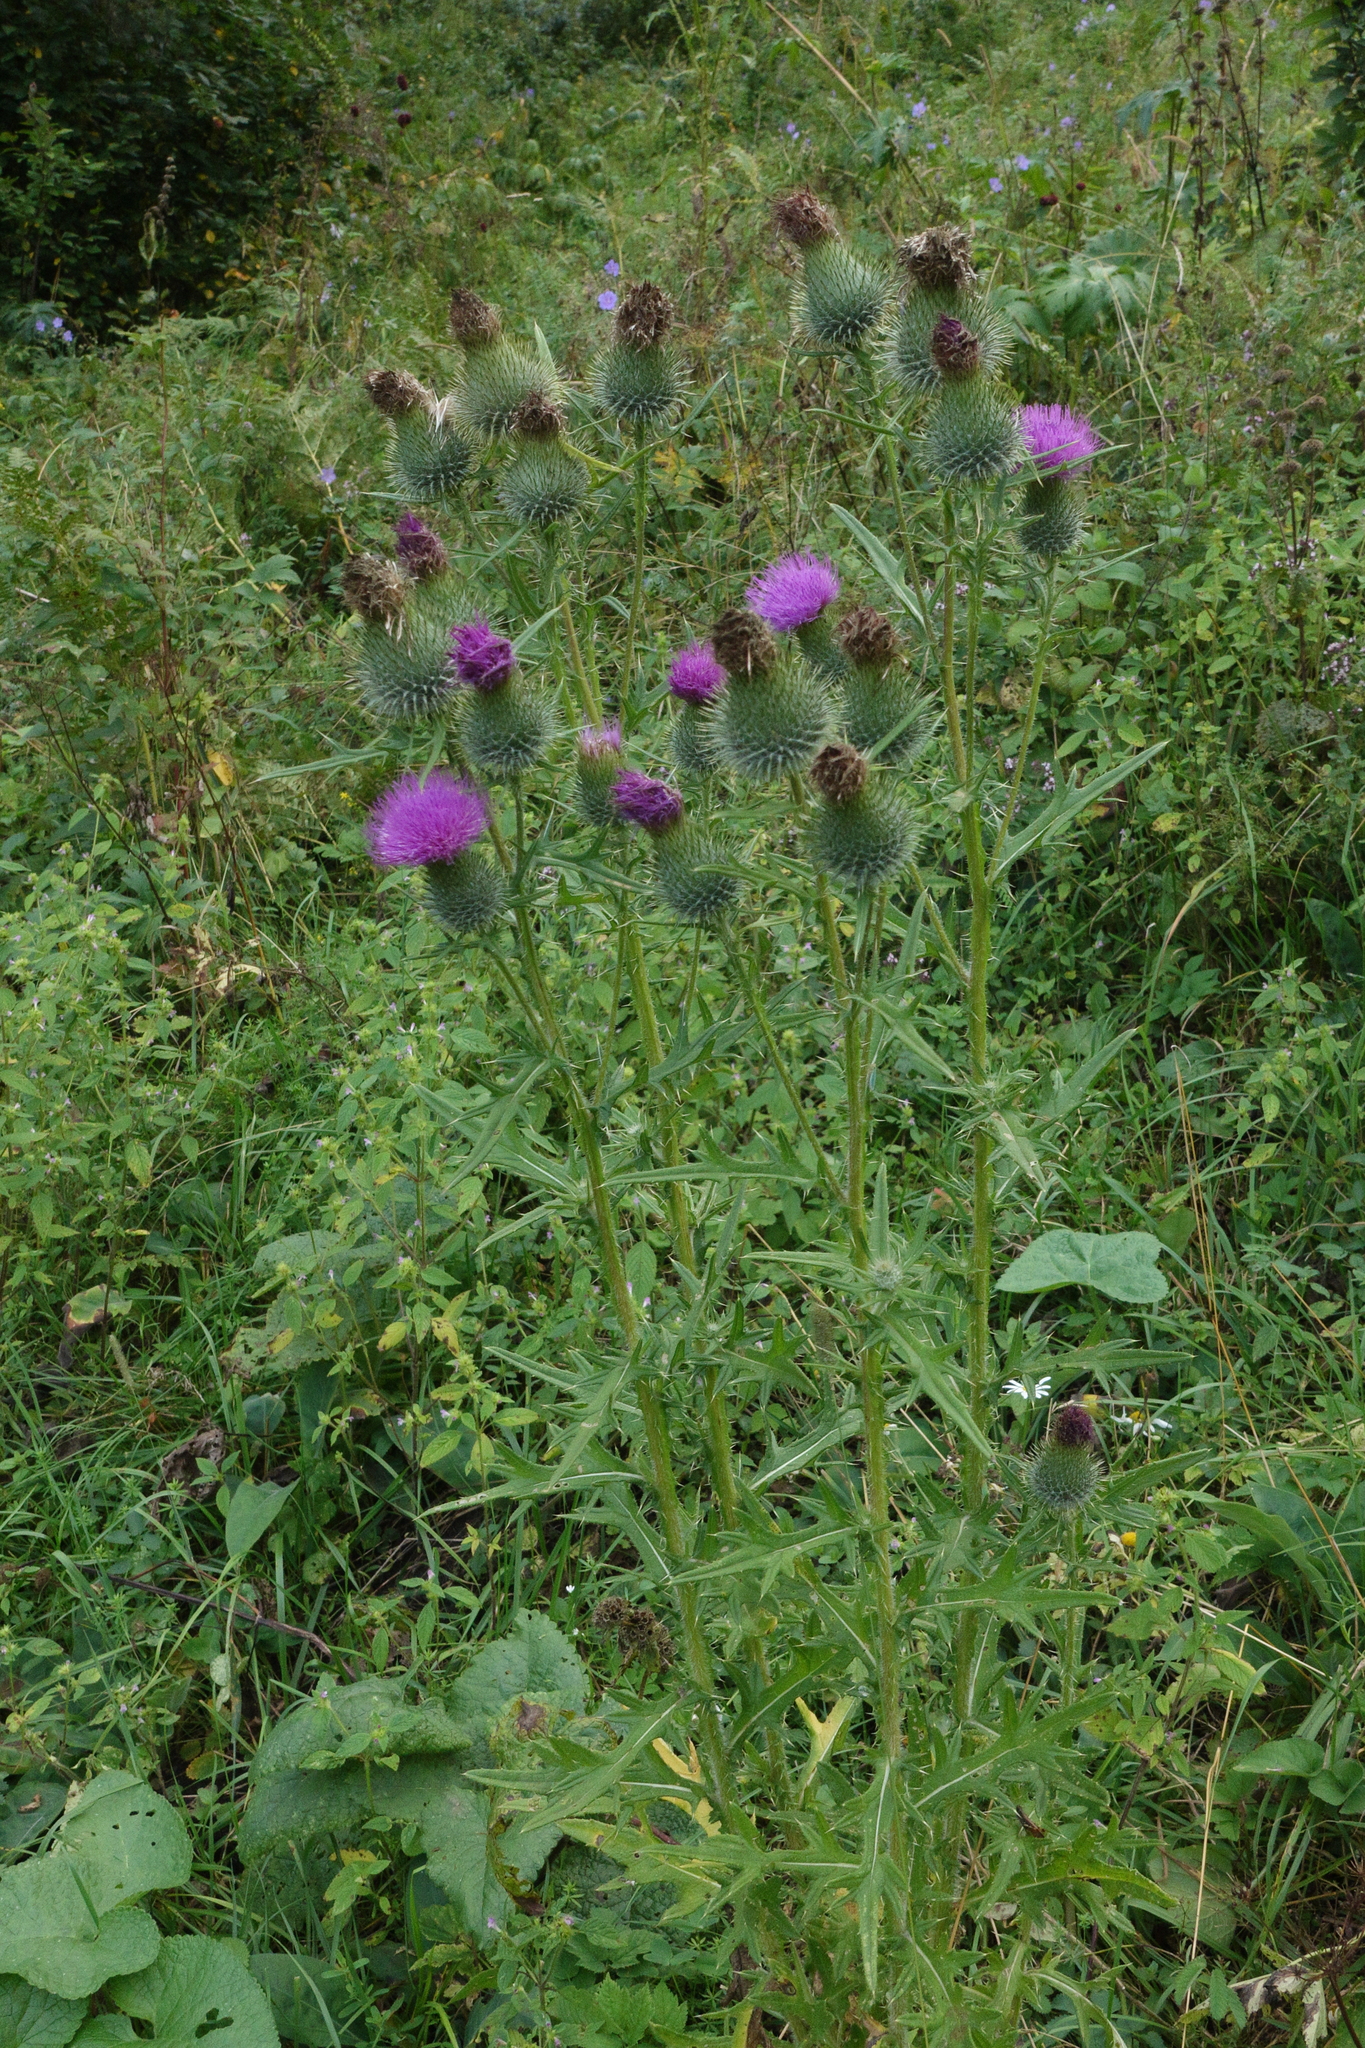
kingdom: Plantae
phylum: Tracheophyta
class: Magnoliopsida
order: Asterales
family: Asteraceae
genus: Cirsium
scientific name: Cirsium vulgare
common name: Bull thistle
